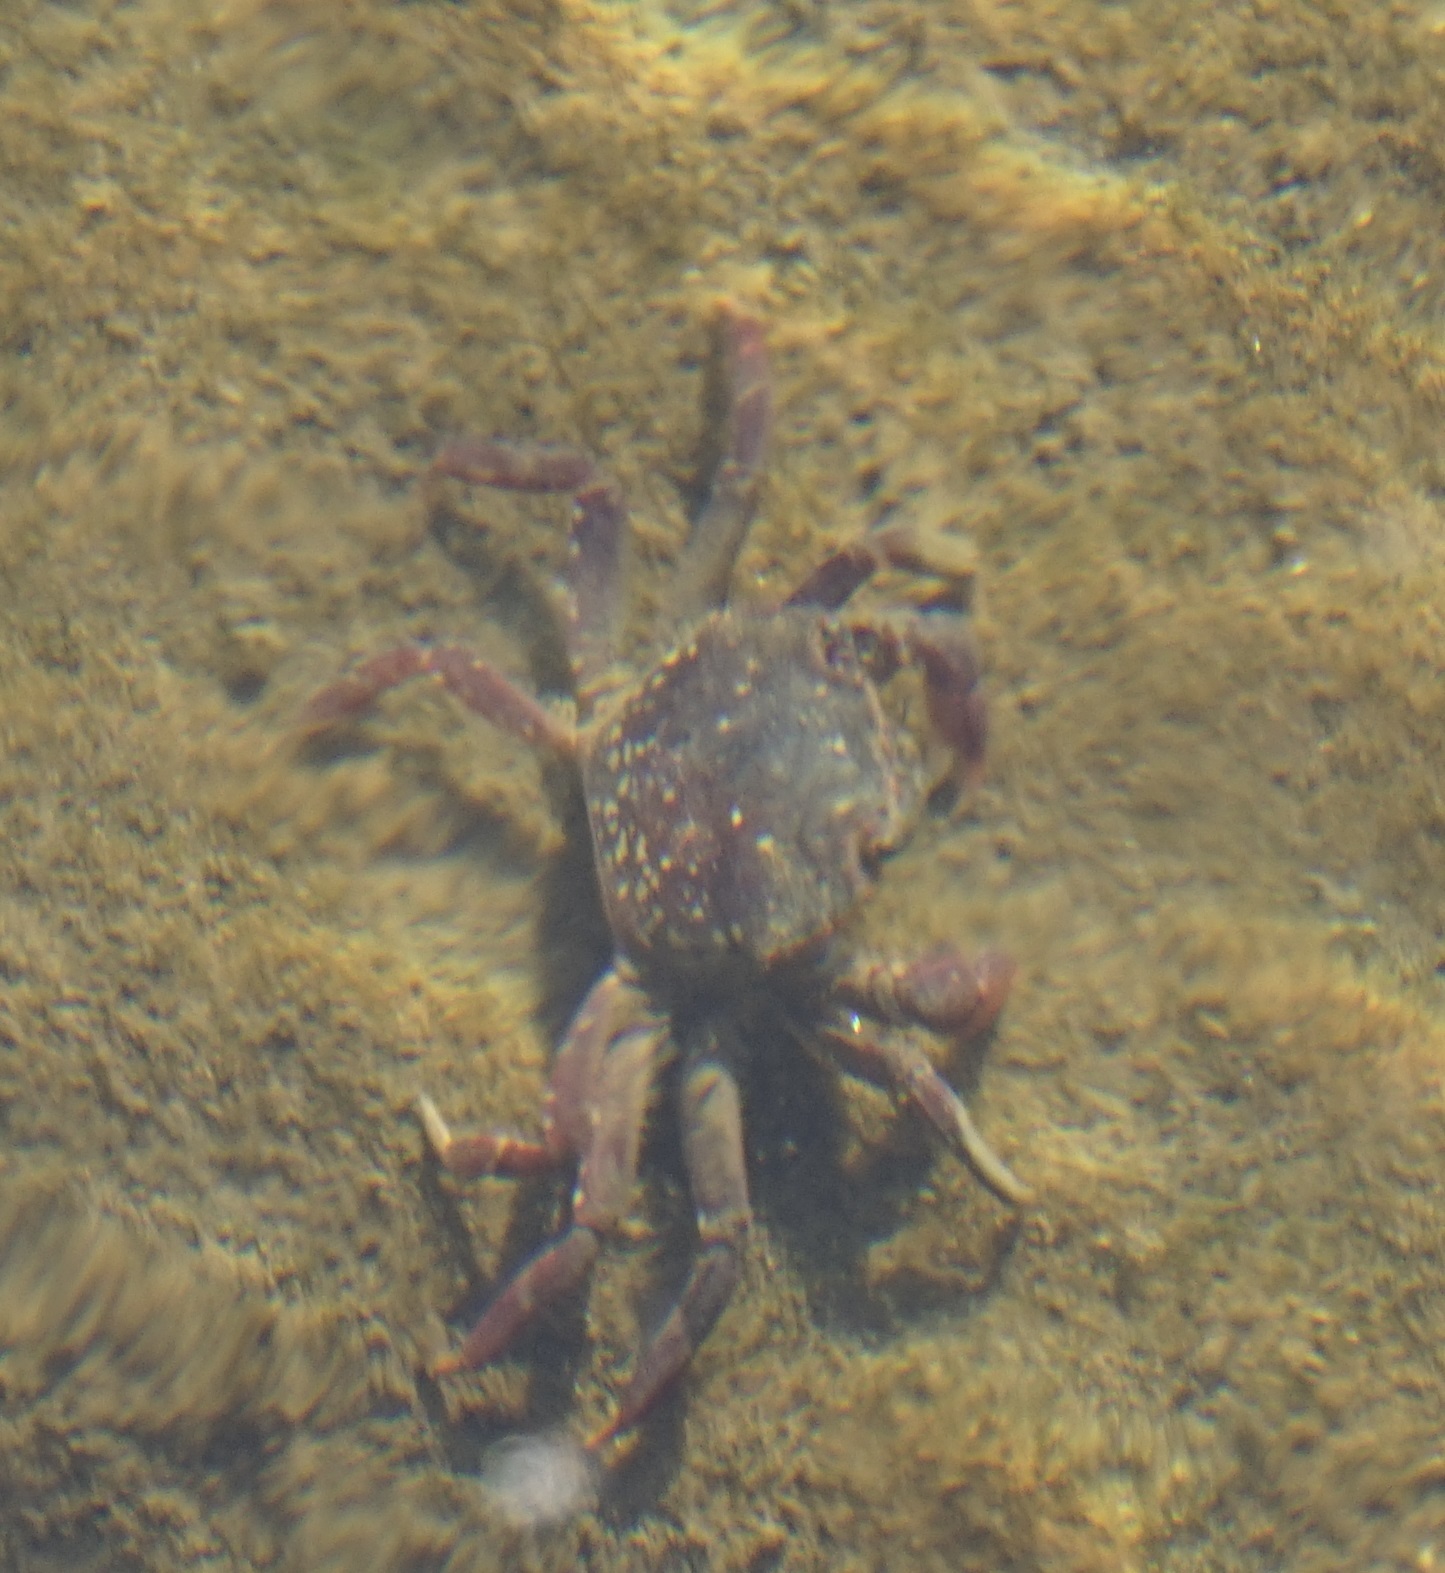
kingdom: Animalia
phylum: Arthropoda
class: Malacostraca
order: Decapoda
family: Varunidae
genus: Paragrapsus
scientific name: Paragrapsus laevis
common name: Smooth shore crab
